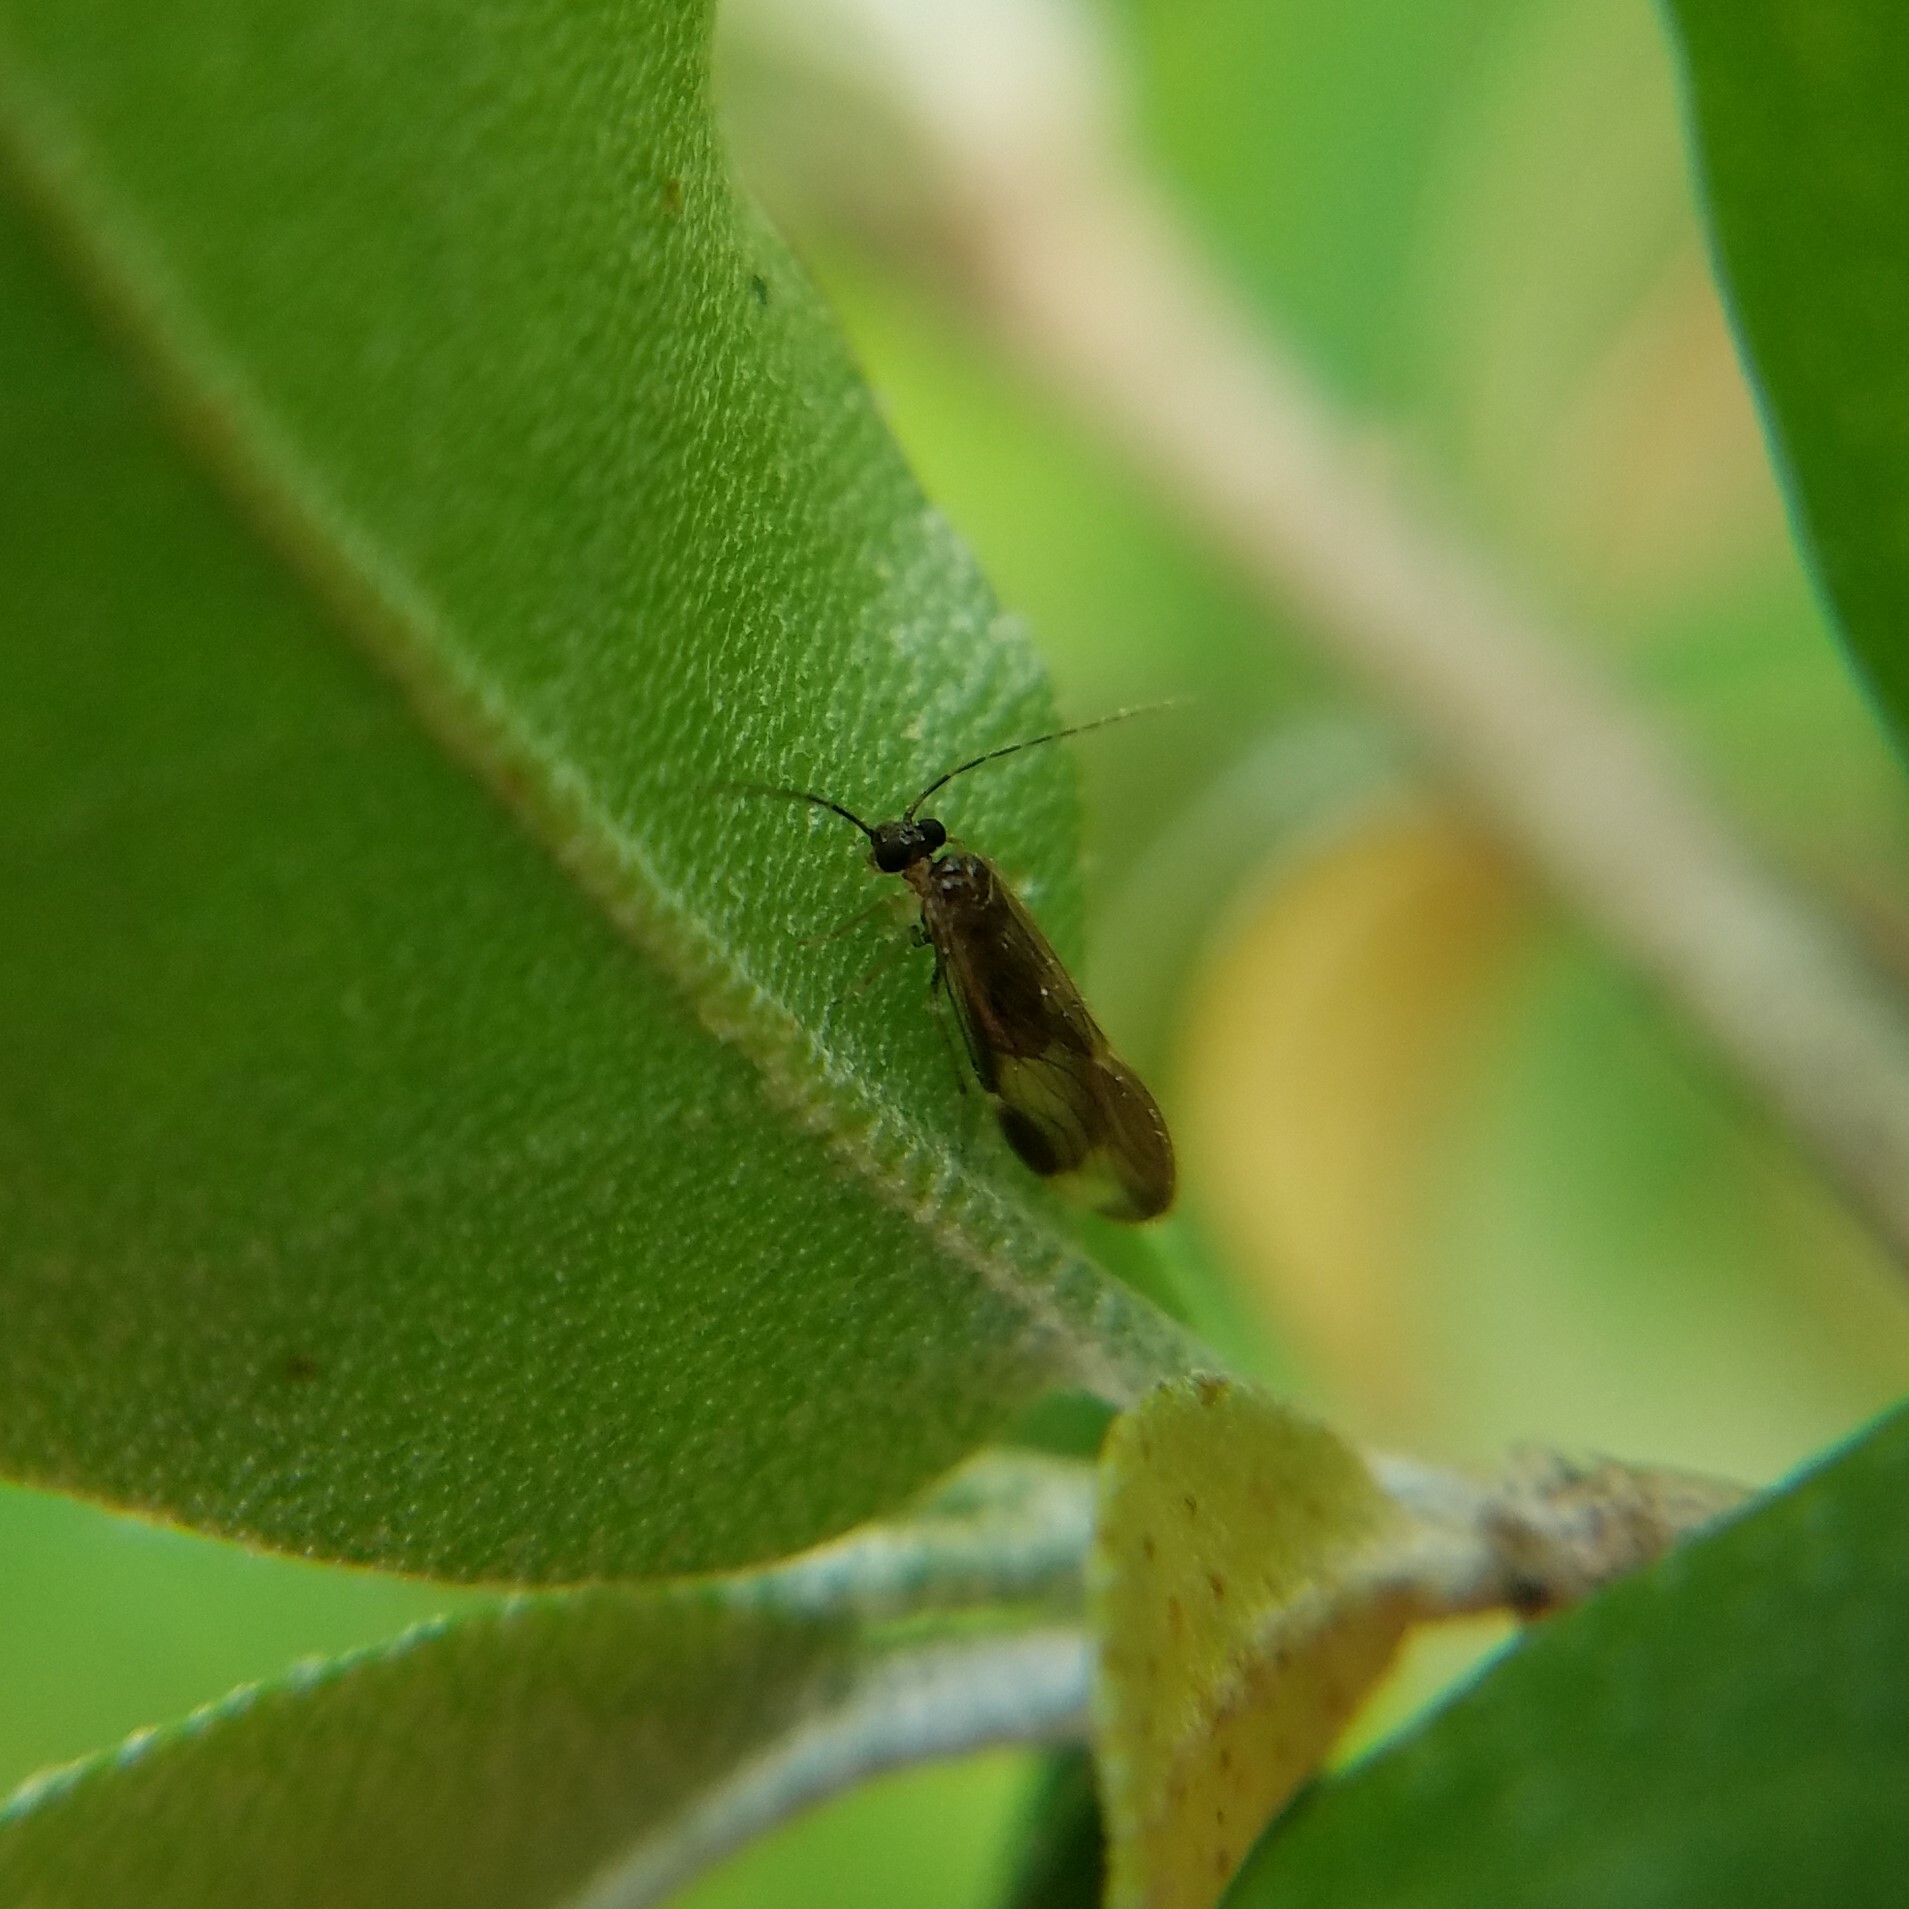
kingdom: Animalia
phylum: Arthropoda
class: Insecta
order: Psocodea
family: Amphipsocidae
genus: Polypsocus
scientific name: Polypsocus corruptus
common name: Corrupt barklouse
